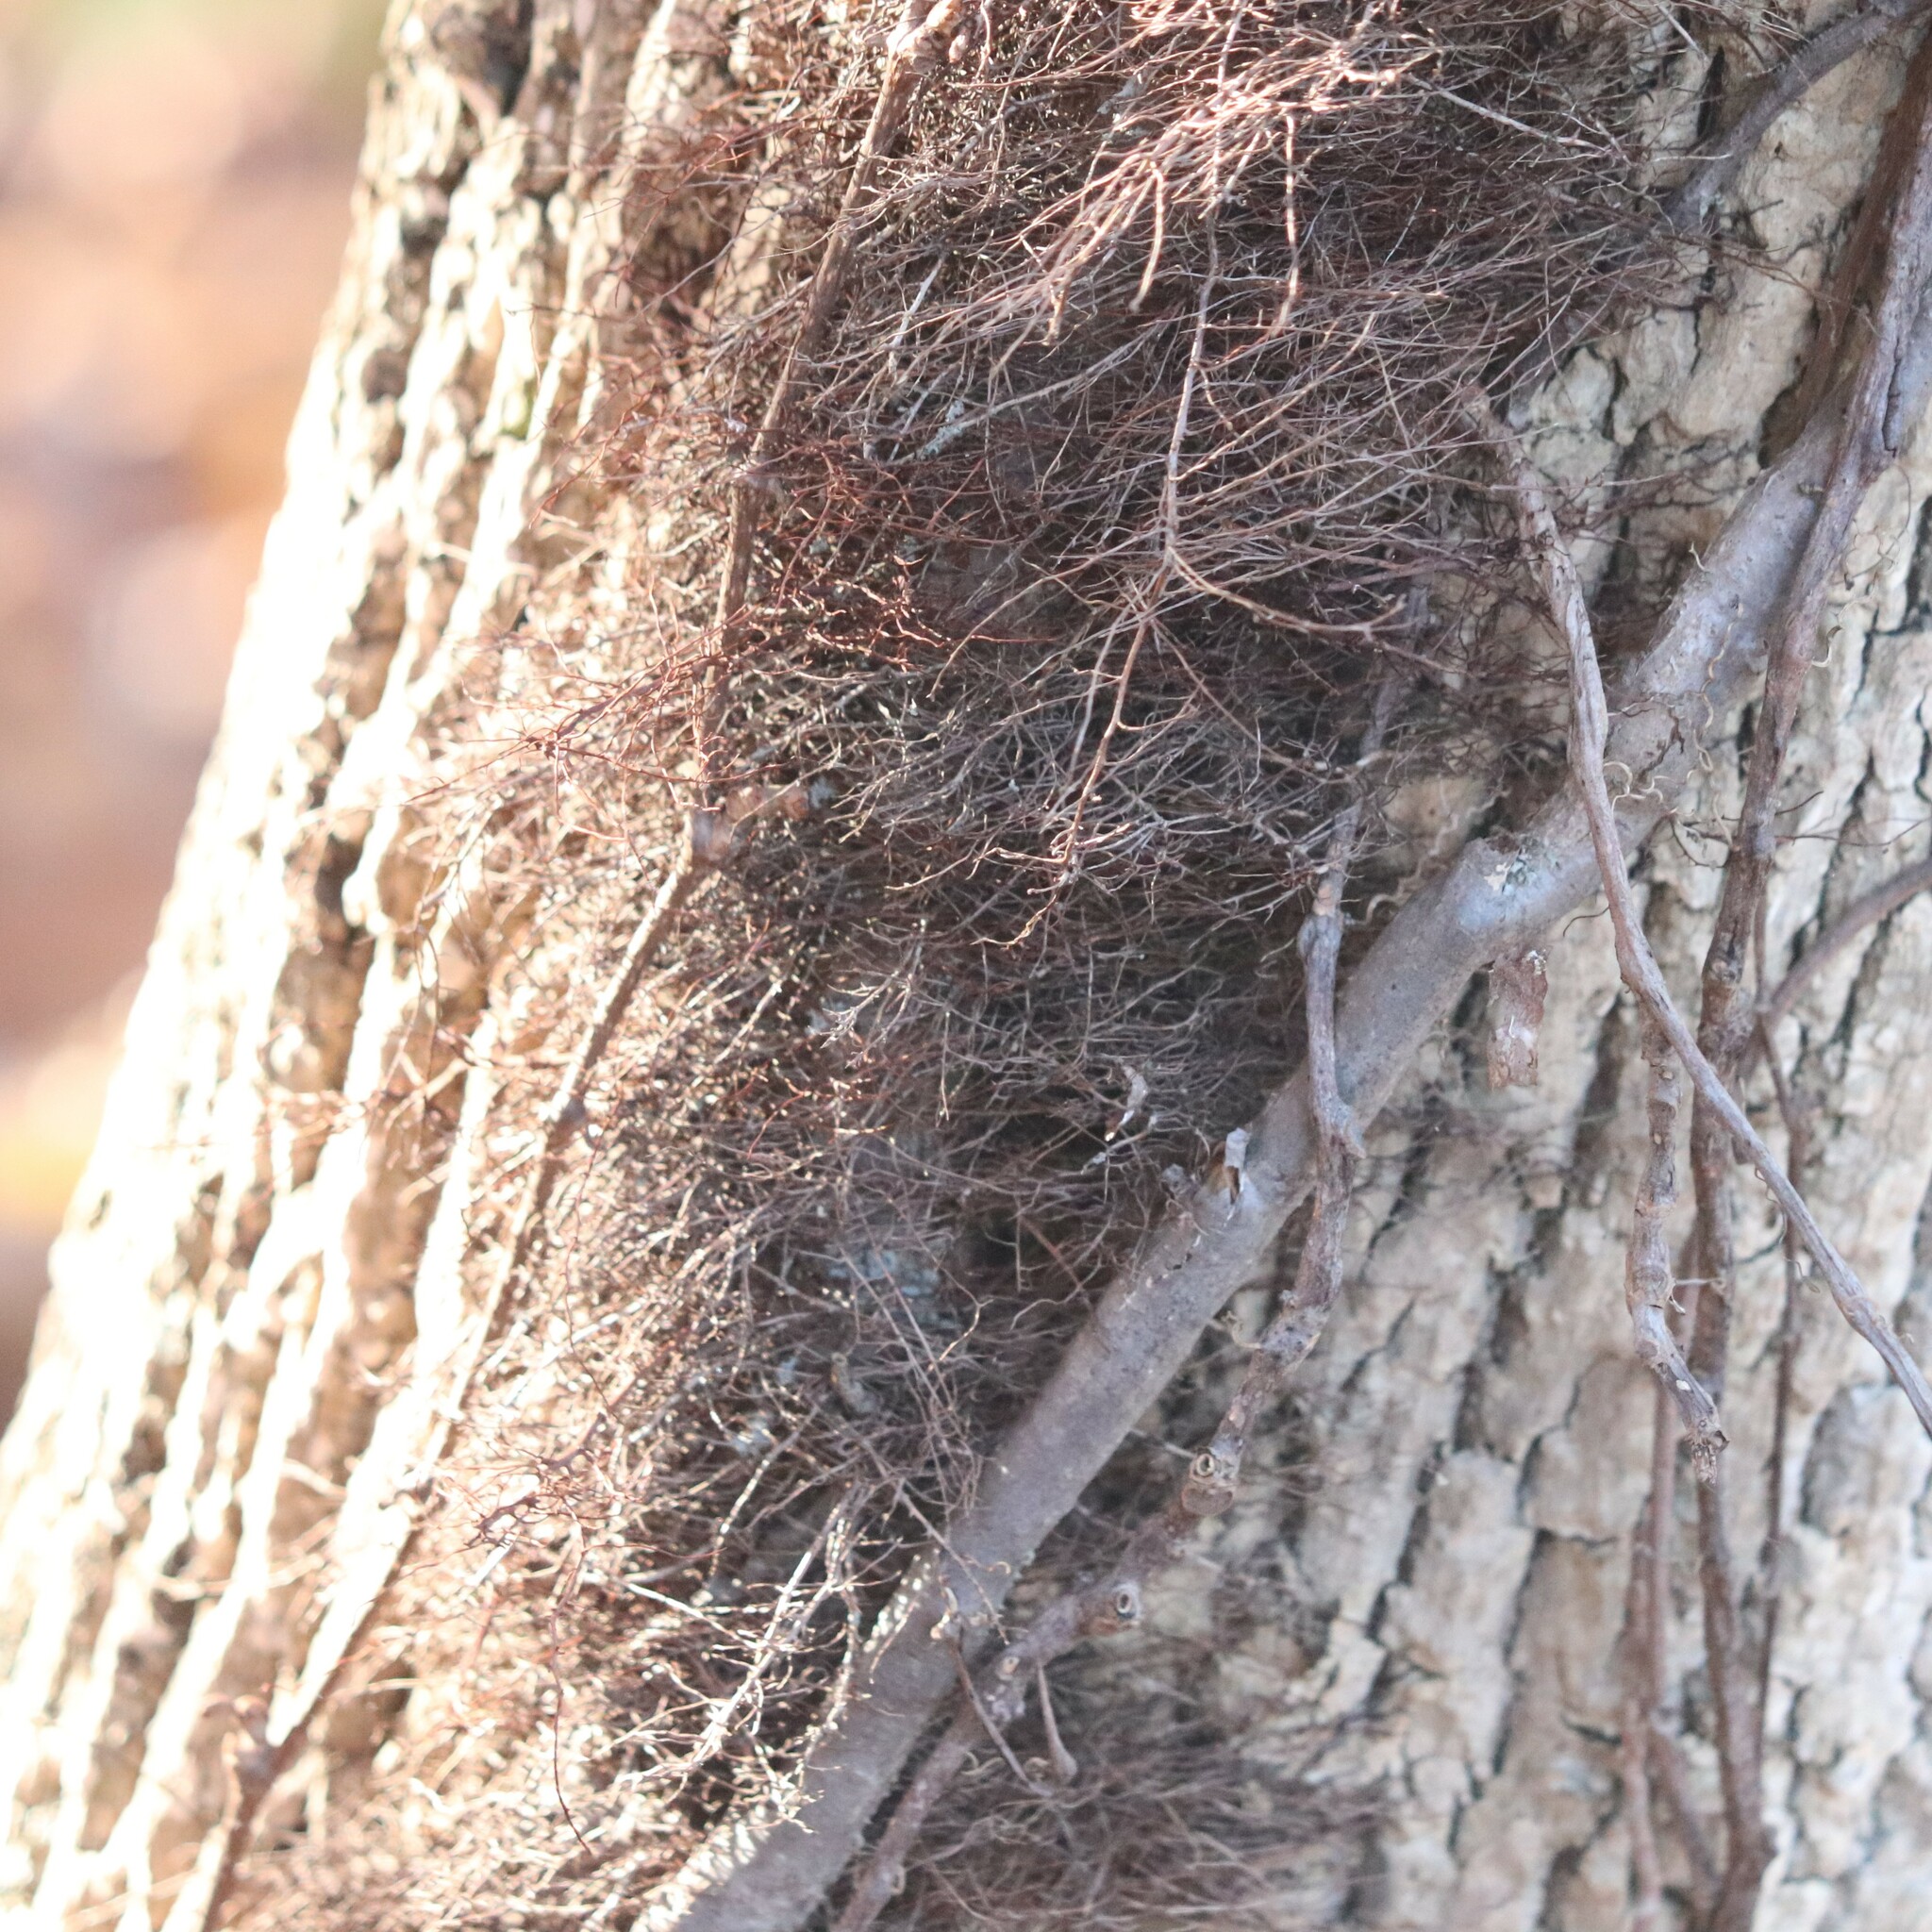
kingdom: Plantae
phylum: Tracheophyta
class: Magnoliopsida
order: Sapindales
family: Anacardiaceae
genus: Toxicodendron
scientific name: Toxicodendron radicans
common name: Poison ivy
